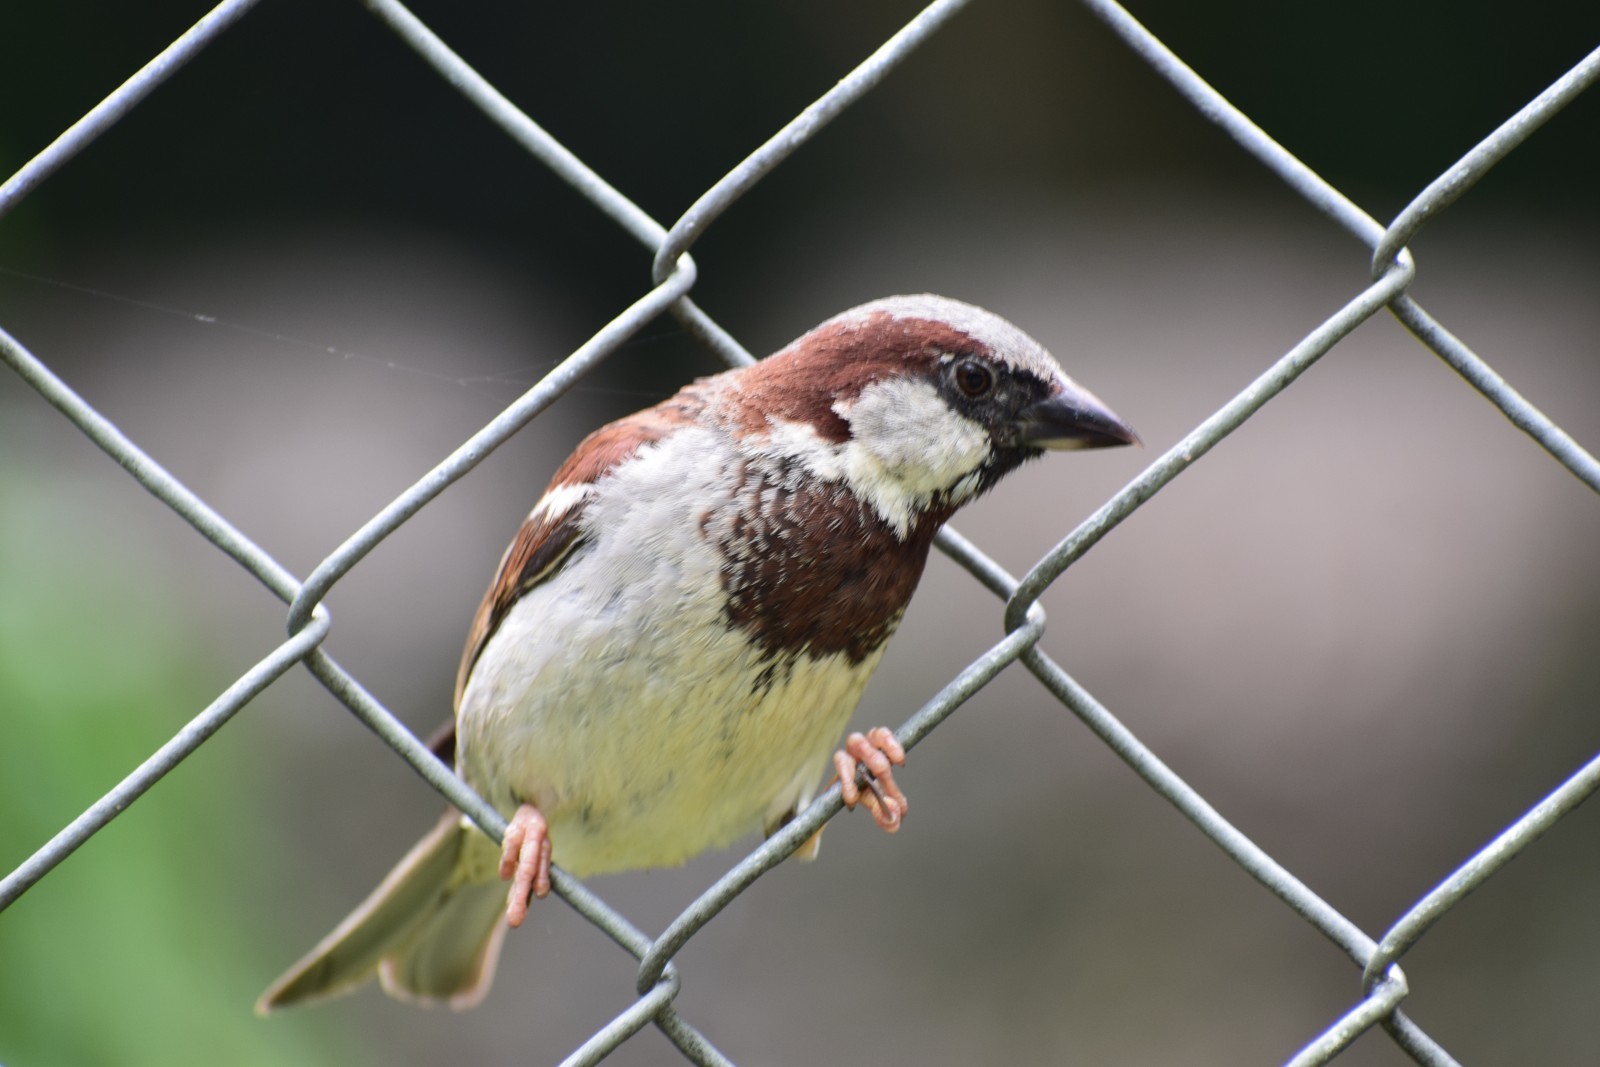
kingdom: Animalia
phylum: Chordata
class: Aves
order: Passeriformes
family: Passeridae
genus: Passer
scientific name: Passer domesticus
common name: House sparrow
